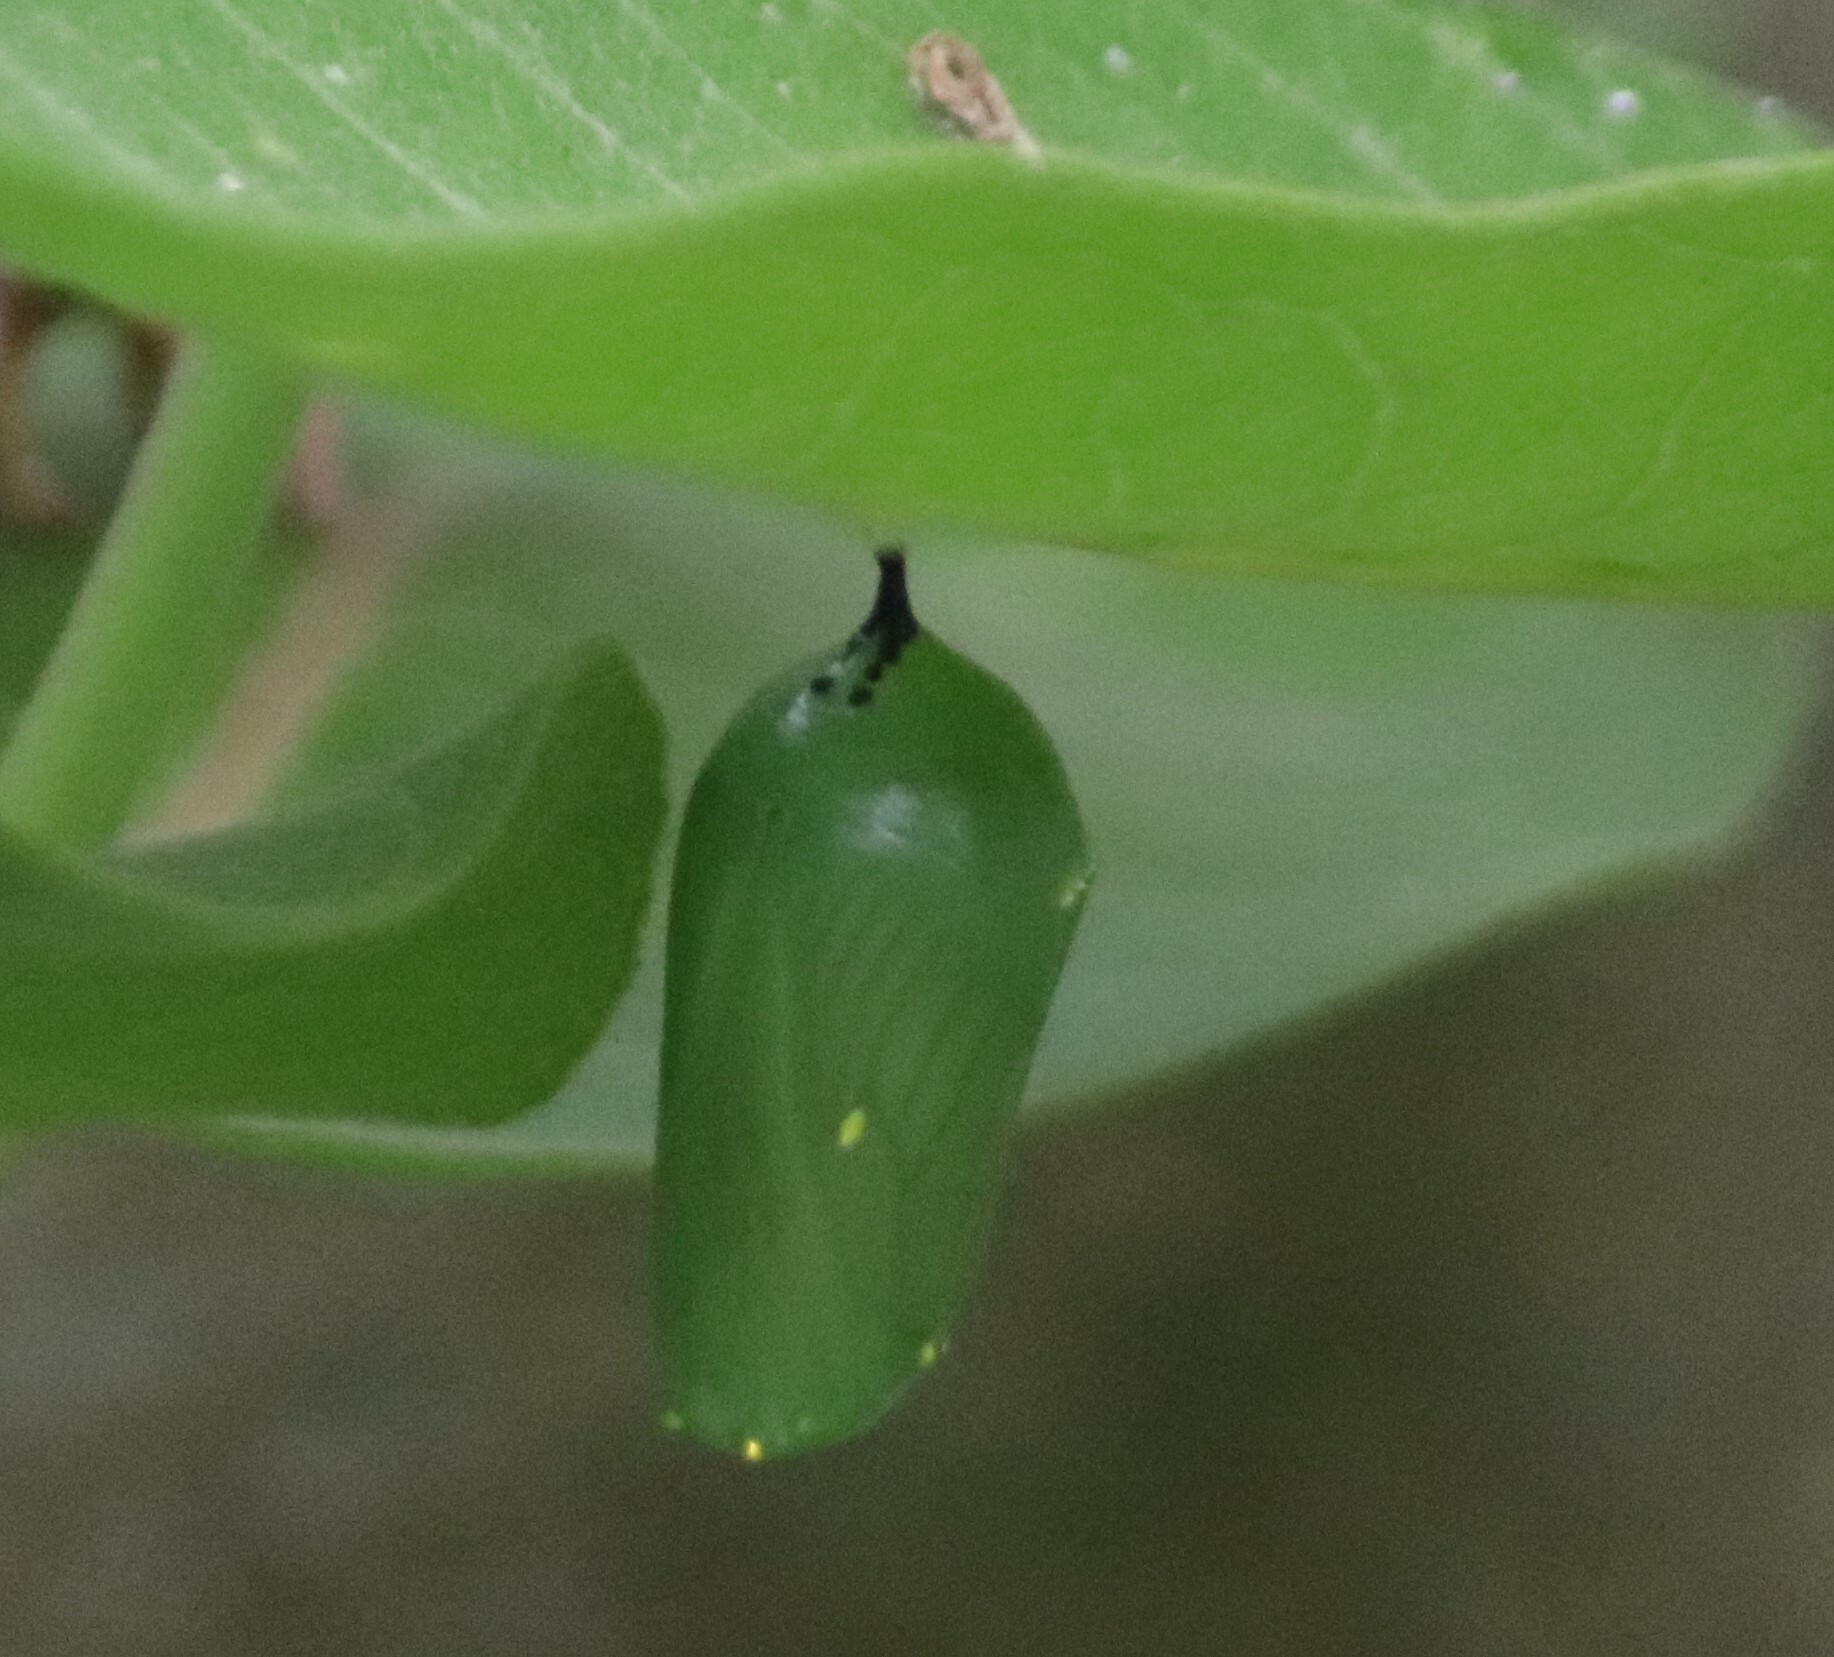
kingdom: Animalia
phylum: Arthropoda
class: Insecta
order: Lepidoptera
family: Nymphalidae
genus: Danaus
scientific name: Danaus plexippus
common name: Monarch
